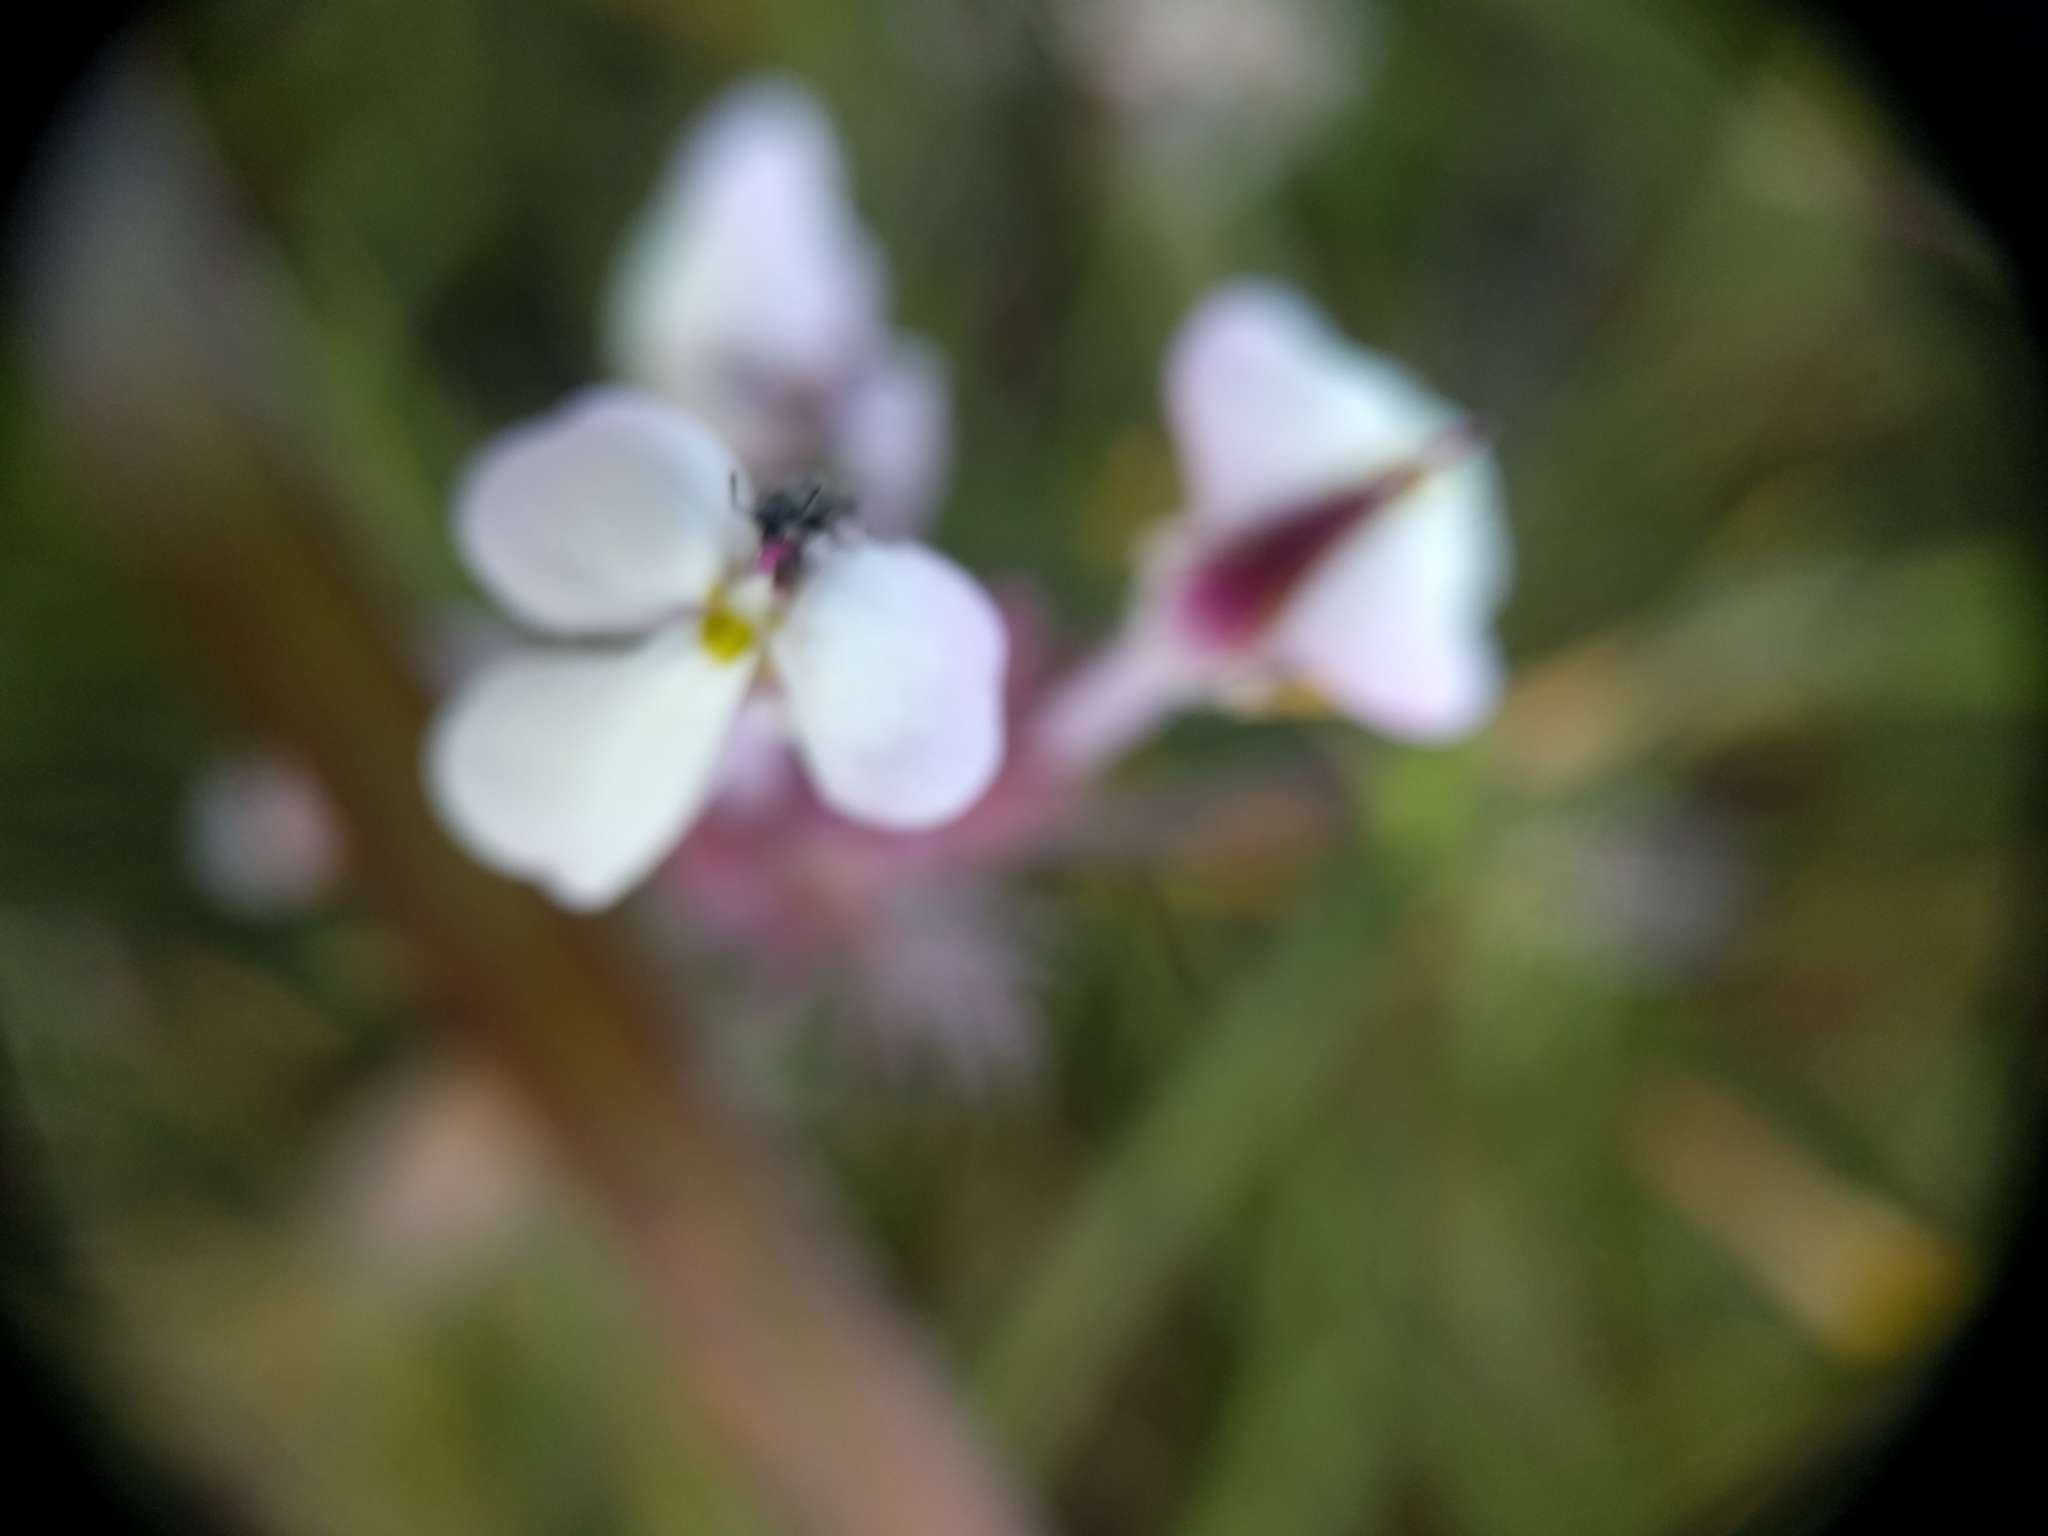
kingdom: Plantae
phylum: Tracheophyta
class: Magnoliopsida
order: Lamiales
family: Orobanchaceae
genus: Triphysaria
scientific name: Triphysaria eriantha
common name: Johnny-tuck
